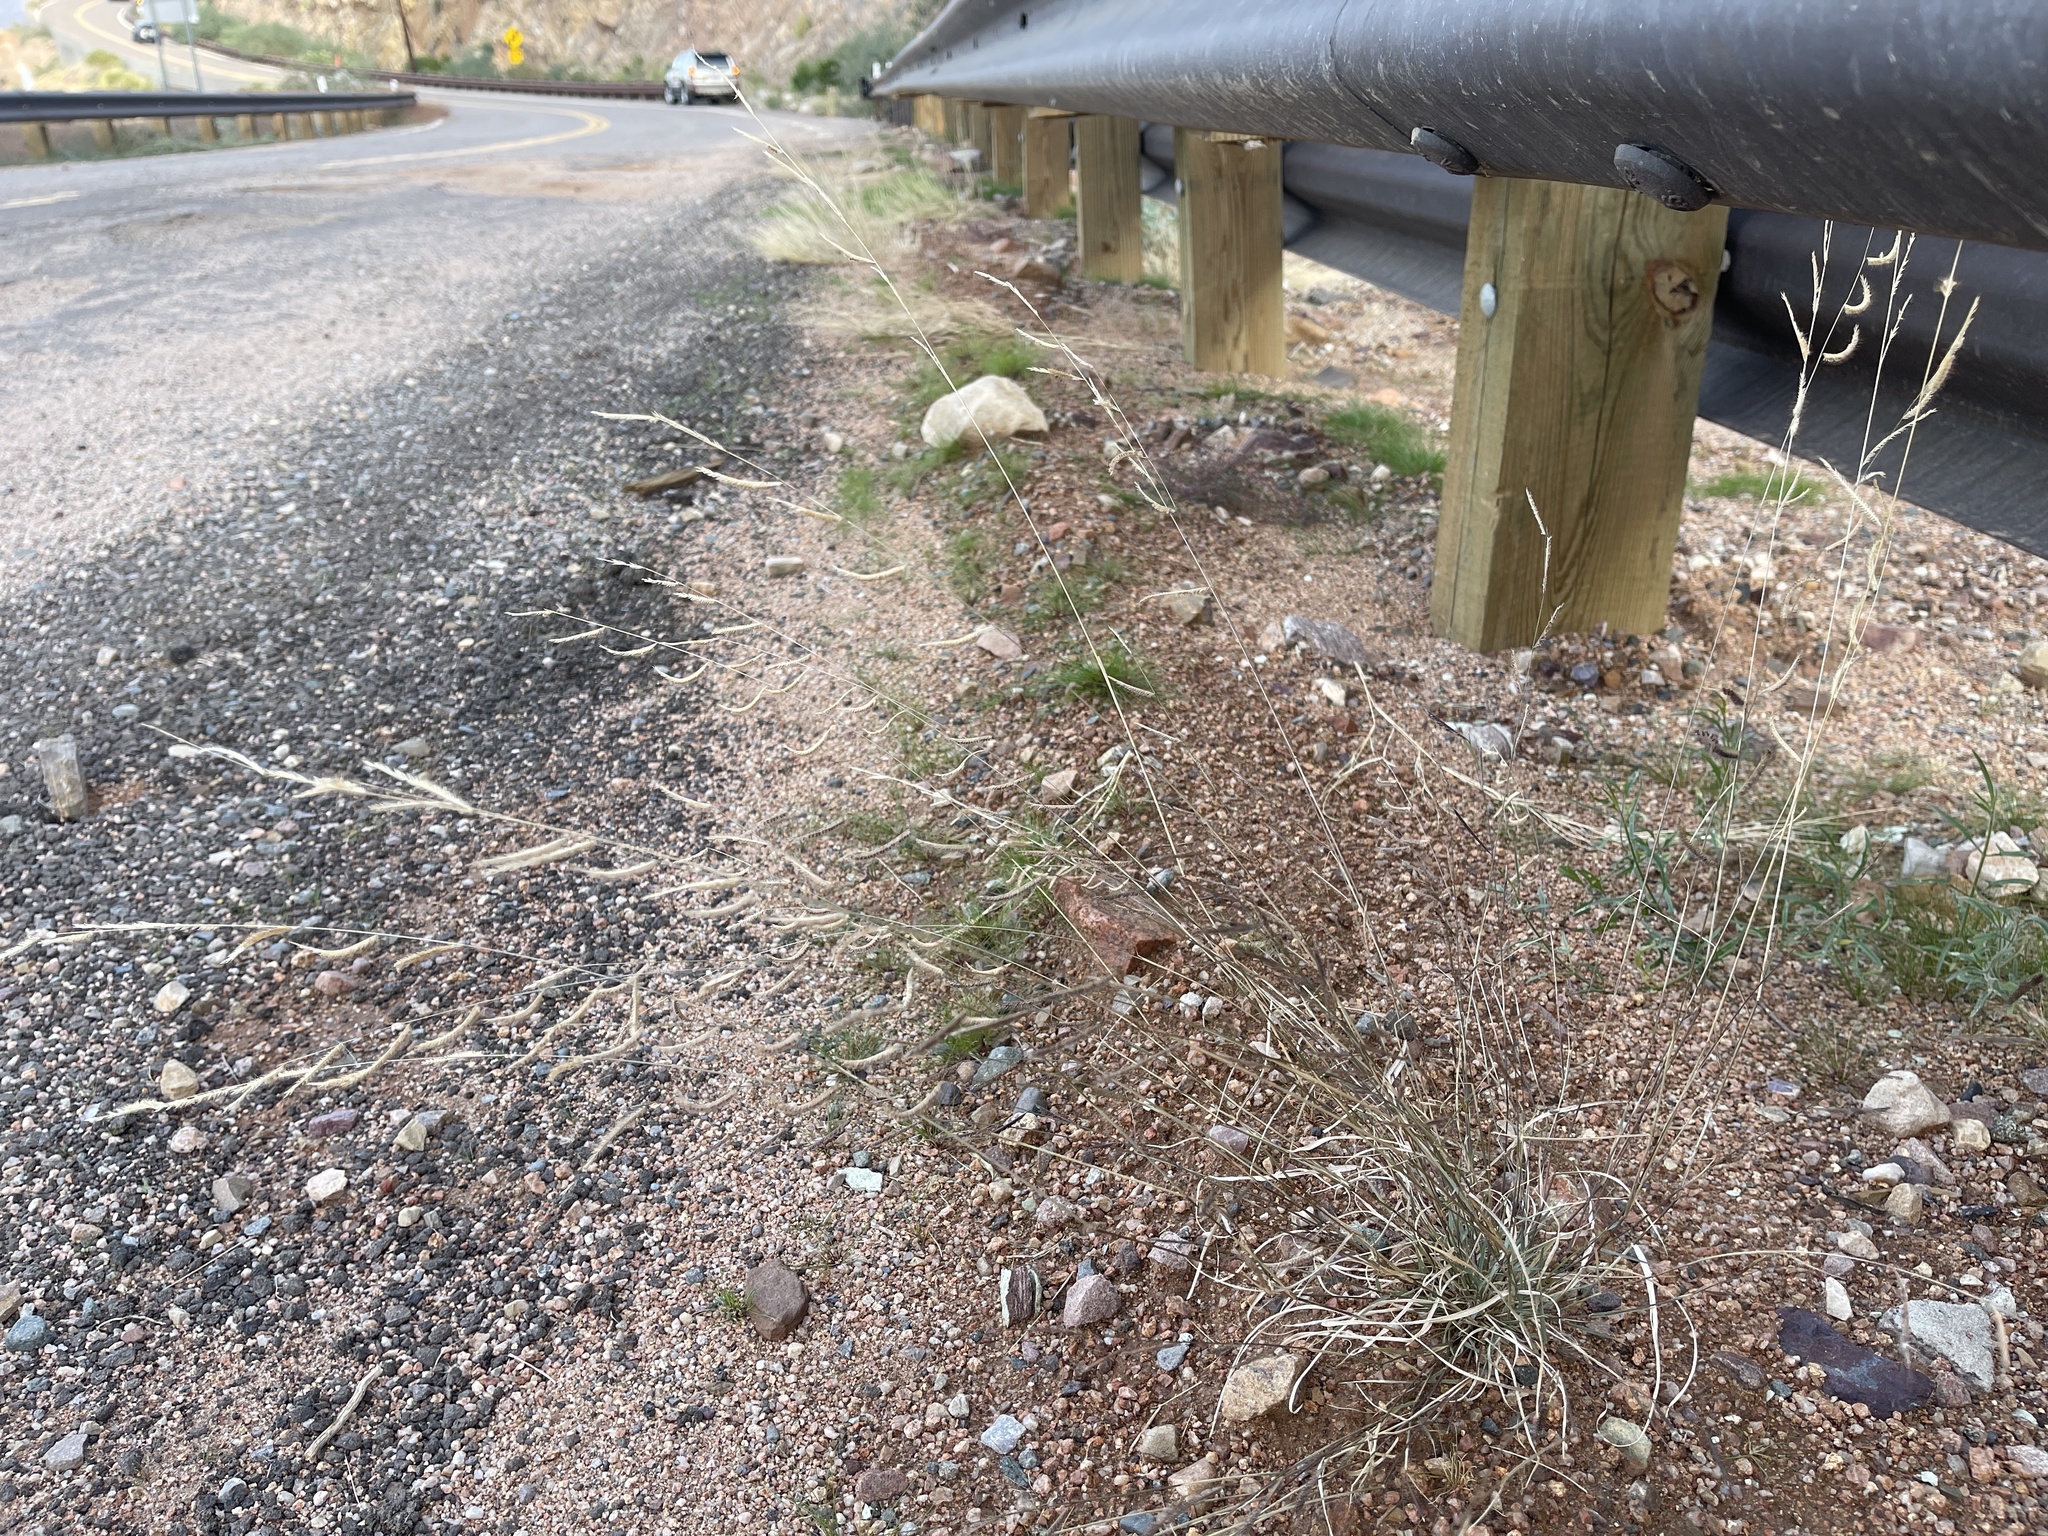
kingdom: Plantae
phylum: Tracheophyta
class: Liliopsida
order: Poales
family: Poaceae
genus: Bouteloua
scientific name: Bouteloua barbata
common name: Six-weeks grama
